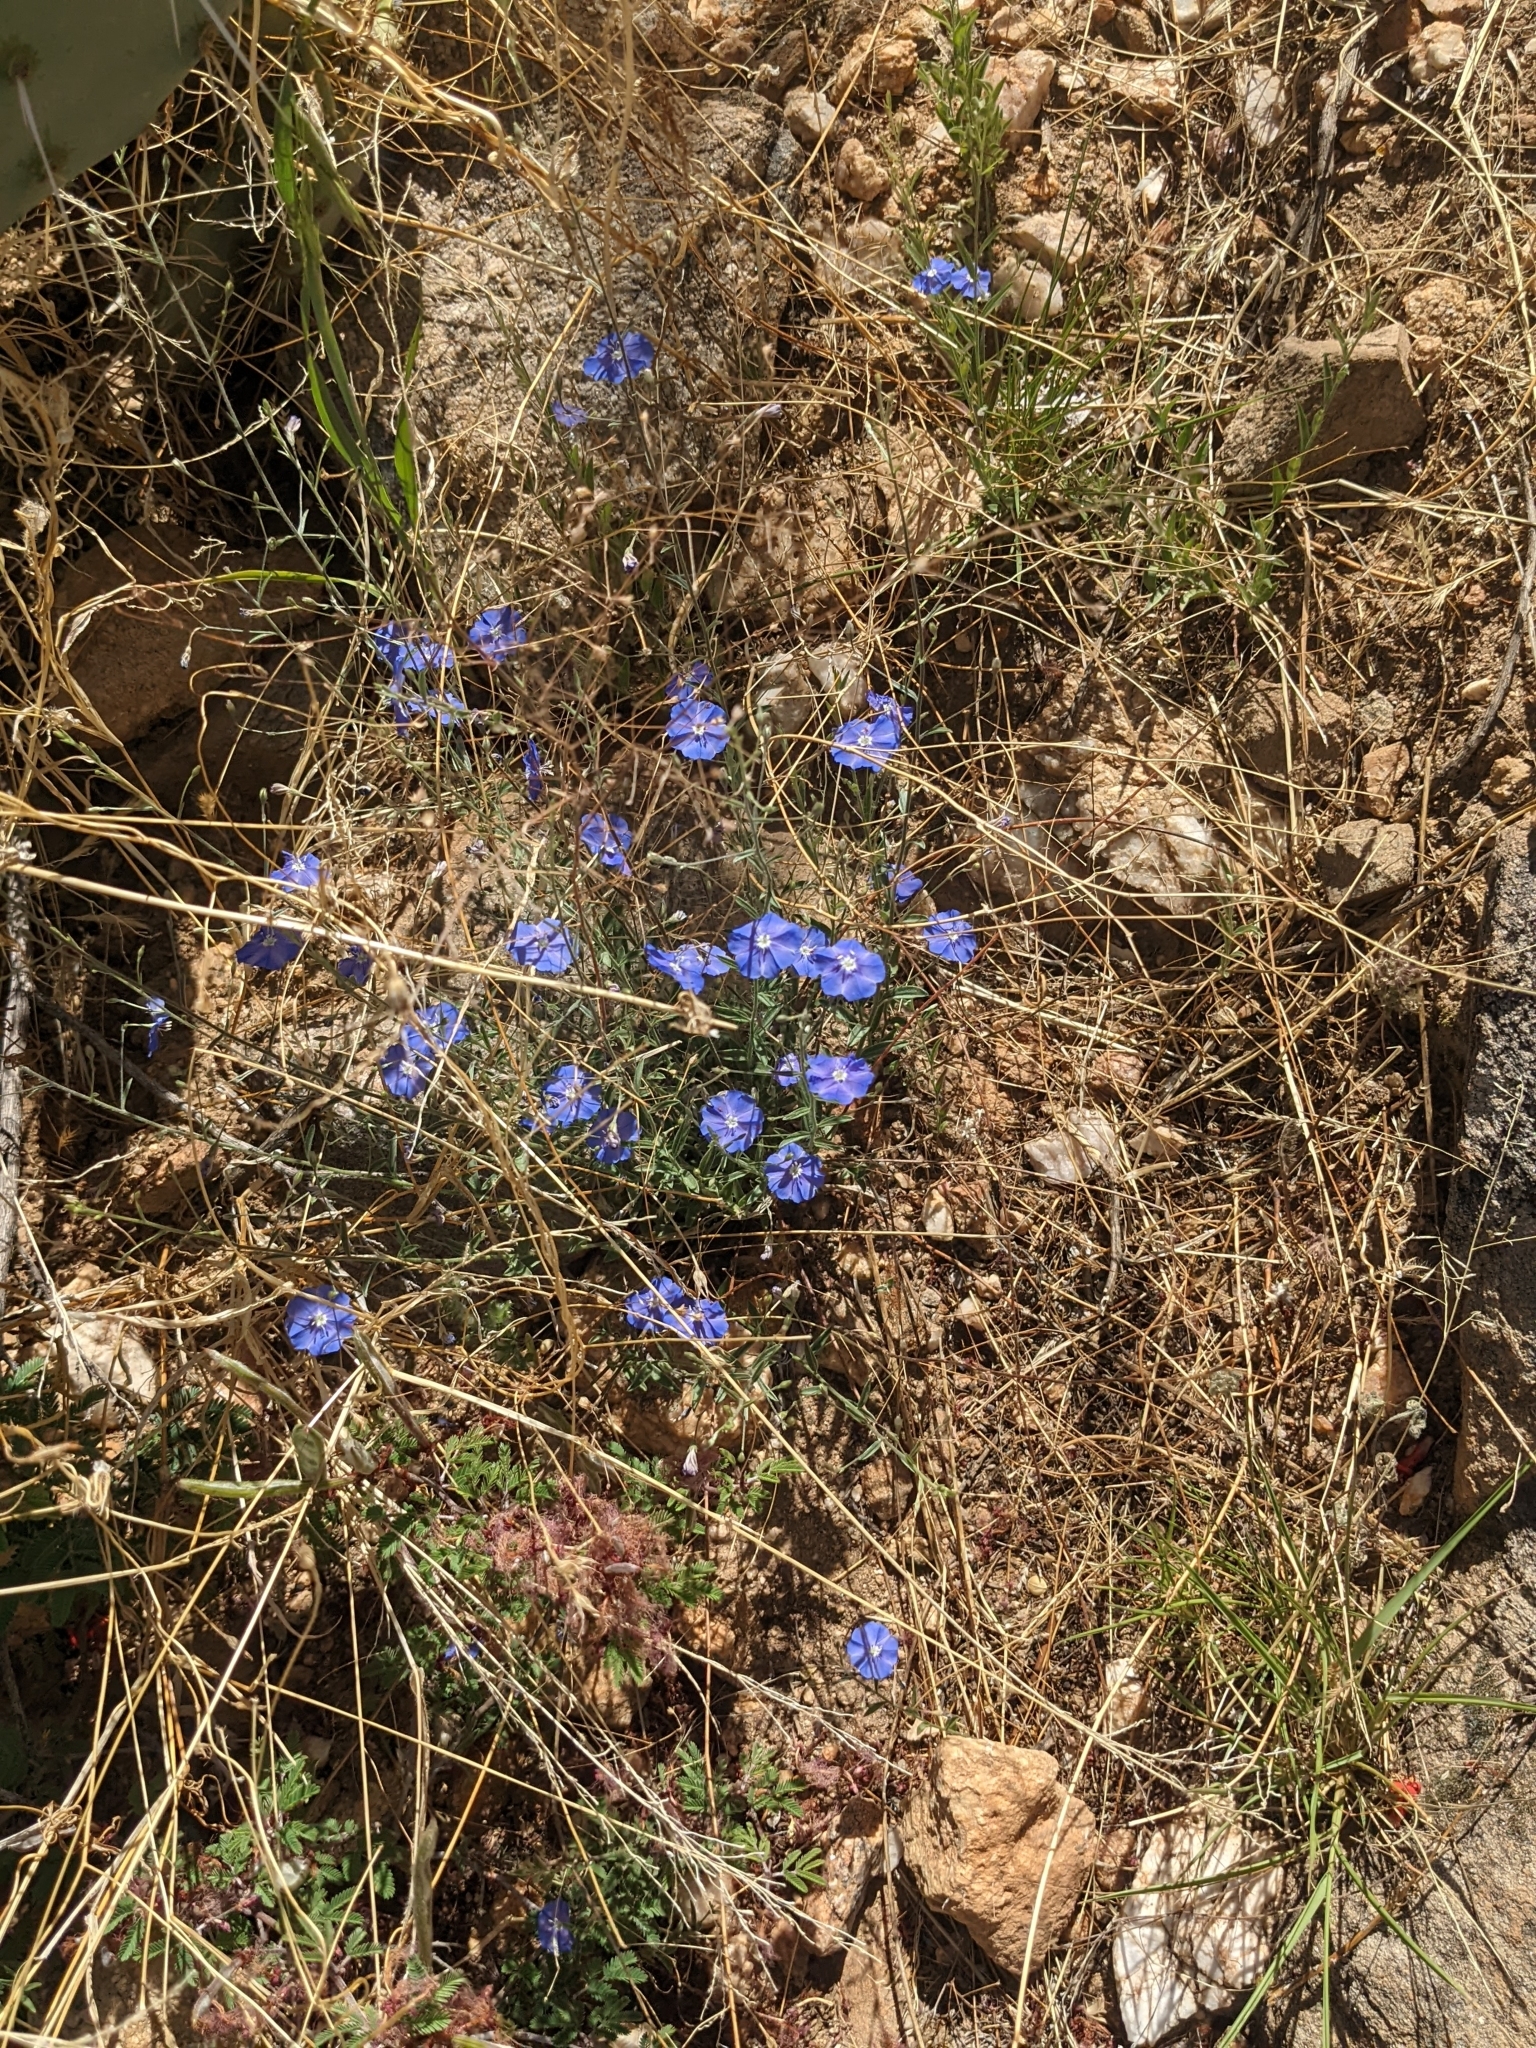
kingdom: Plantae
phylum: Tracheophyta
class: Magnoliopsida
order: Solanales
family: Convolvulaceae
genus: Evolvulus
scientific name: Evolvulus arizonicus
